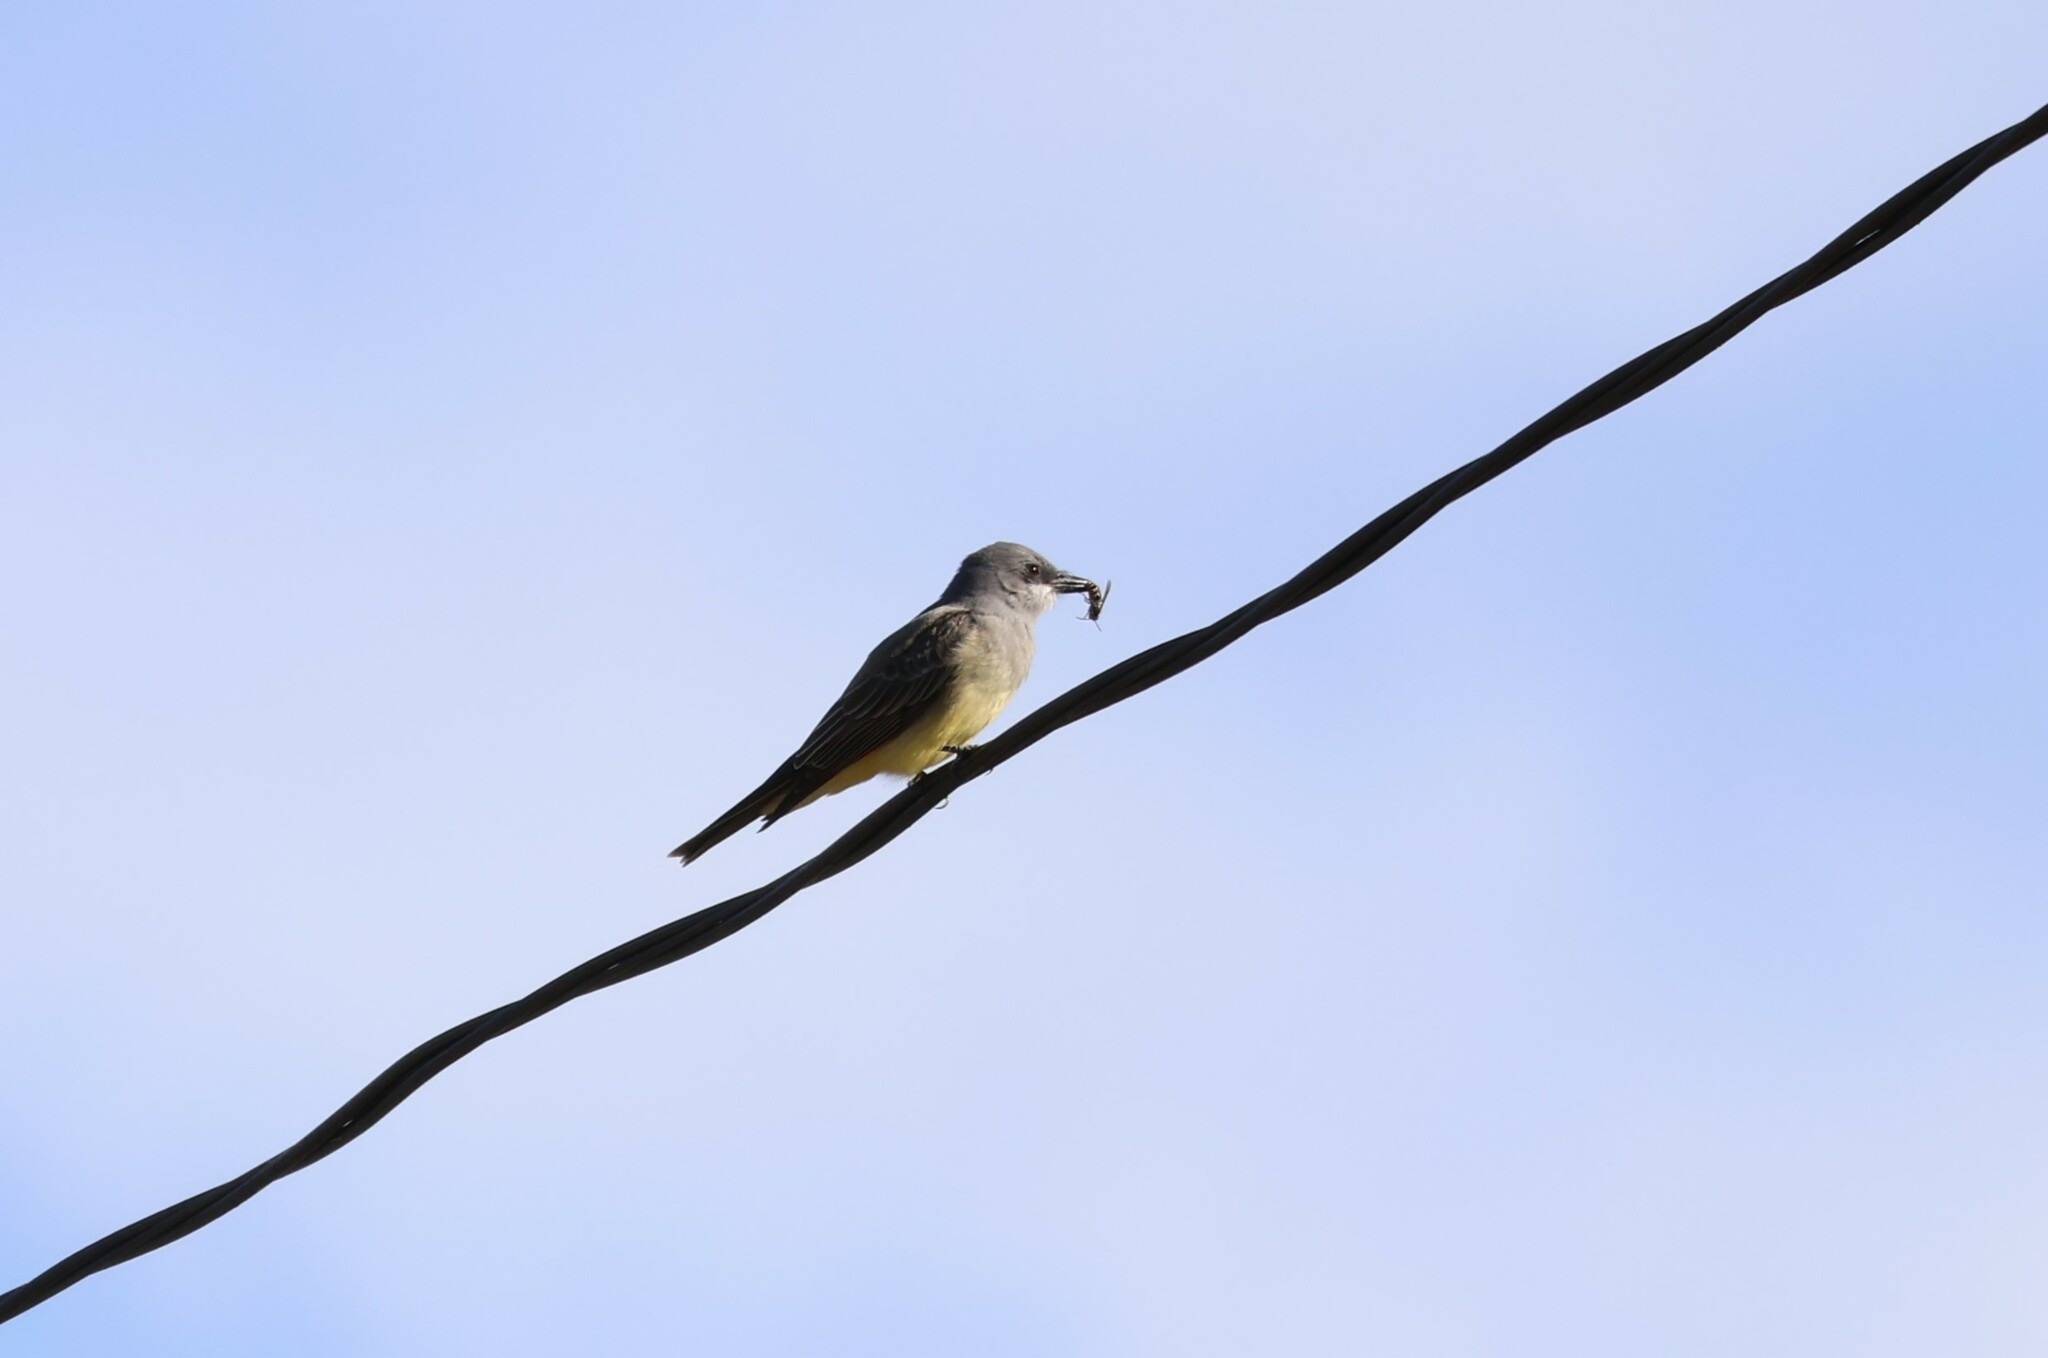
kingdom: Animalia
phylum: Chordata
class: Aves
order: Passeriformes
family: Tyrannidae
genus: Tyrannus
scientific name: Tyrannus vociferans
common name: Cassin's kingbird
